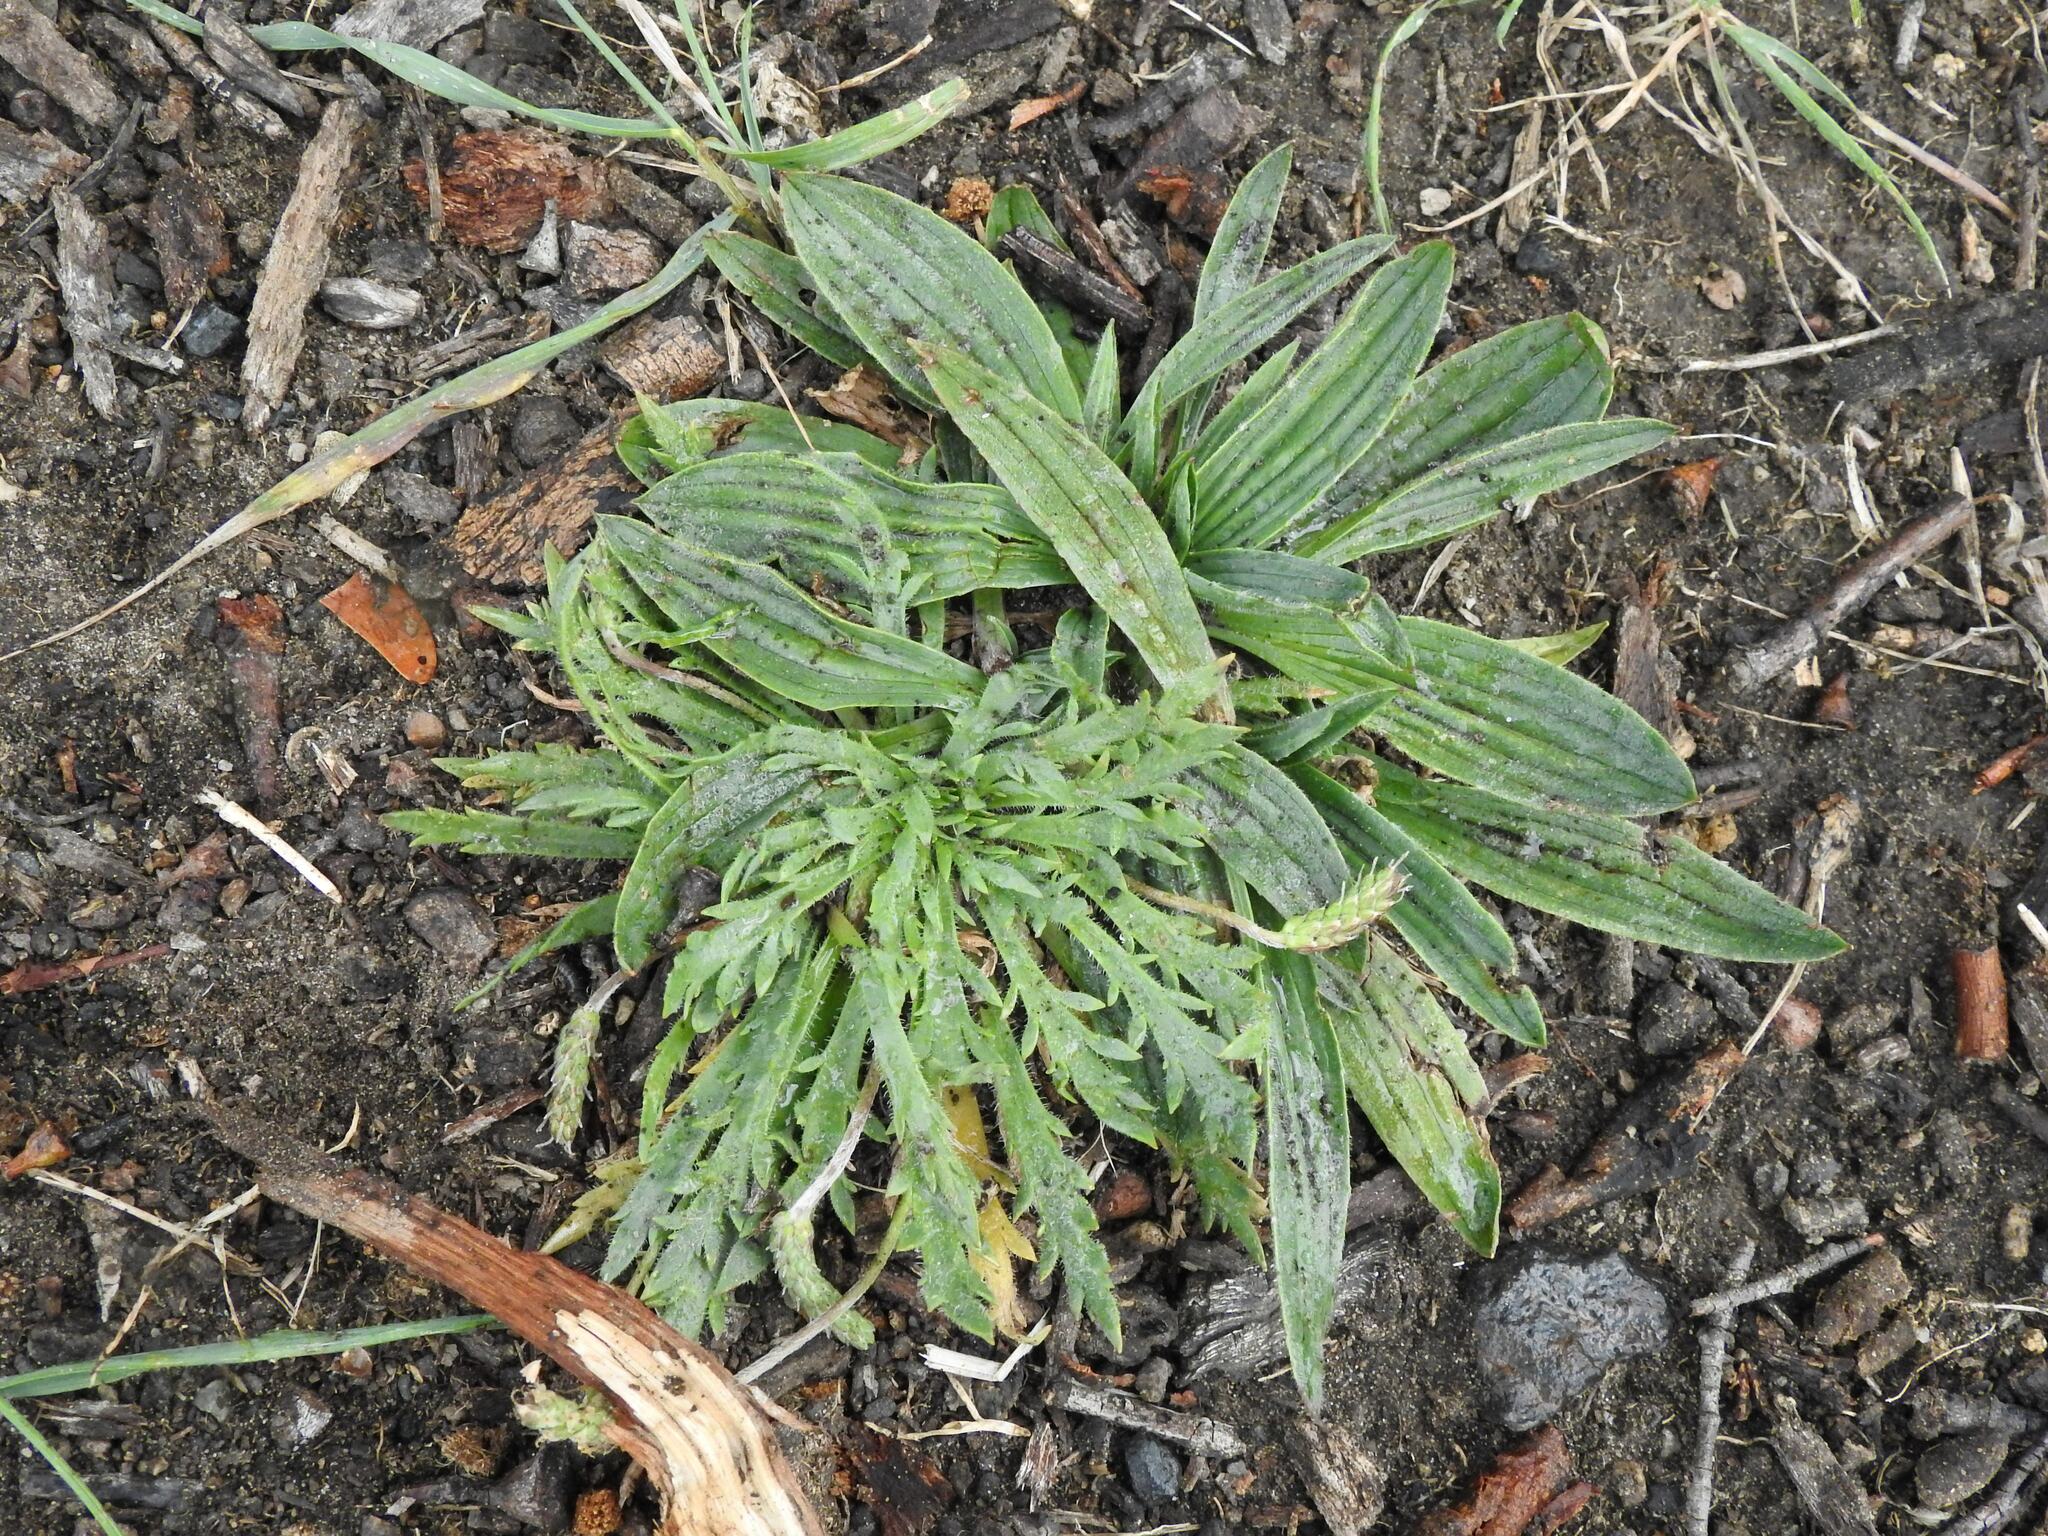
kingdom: Plantae
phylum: Tracheophyta
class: Magnoliopsida
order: Lamiales
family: Plantaginaceae
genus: Plantago
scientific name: Plantago lanceolata
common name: Ribwort plantain
